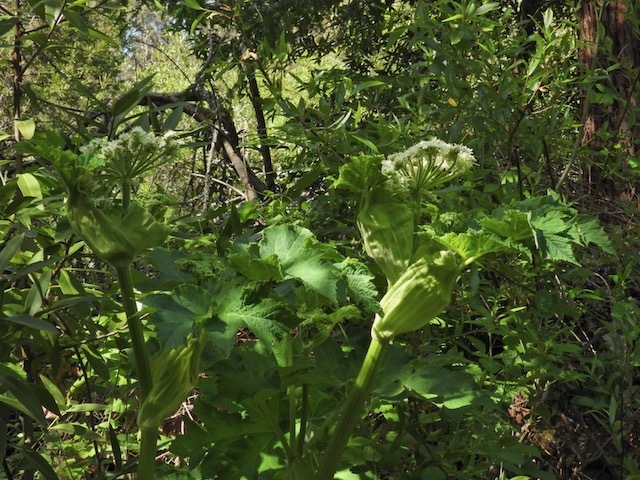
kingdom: Plantae
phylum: Tracheophyta
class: Magnoliopsida
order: Apiales
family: Apiaceae
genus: Heracleum
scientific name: Heracleum maximum
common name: American cow parsnip
